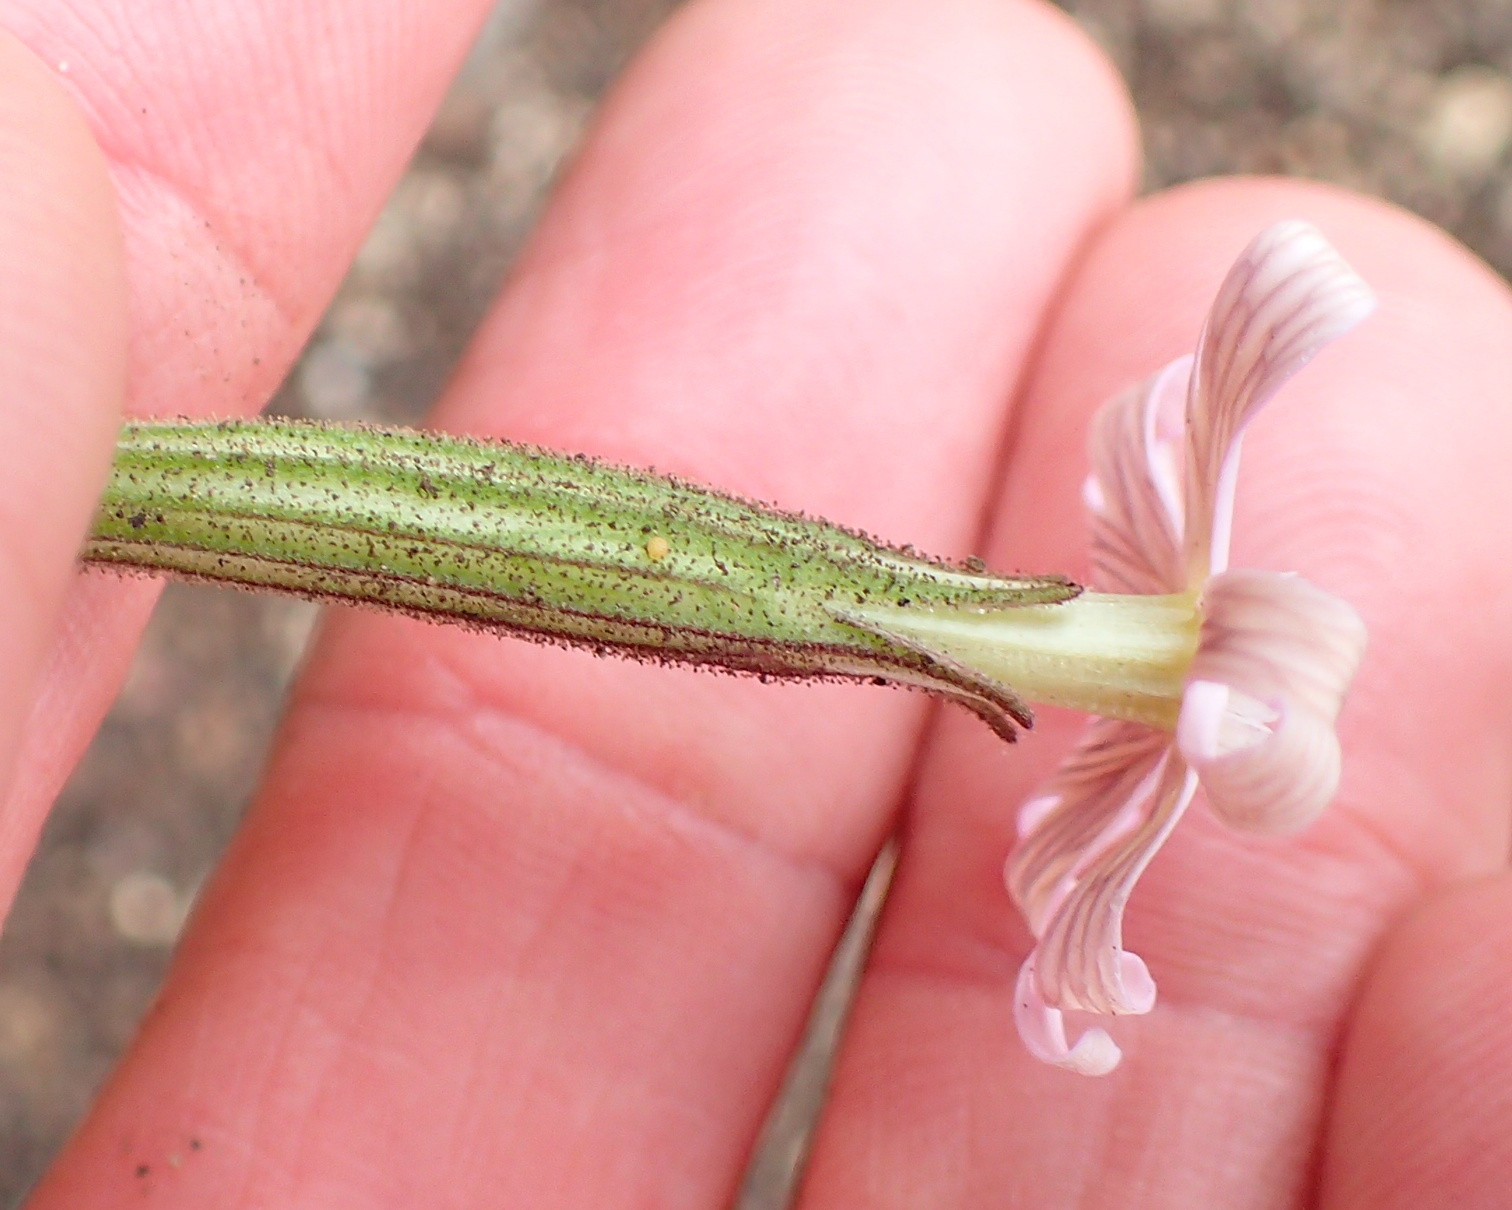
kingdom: Plantae
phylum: Tracheophyta
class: Magnoliopsida
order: Caryophyllales
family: Caryophyllaceae
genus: Silene
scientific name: Silene undulata
